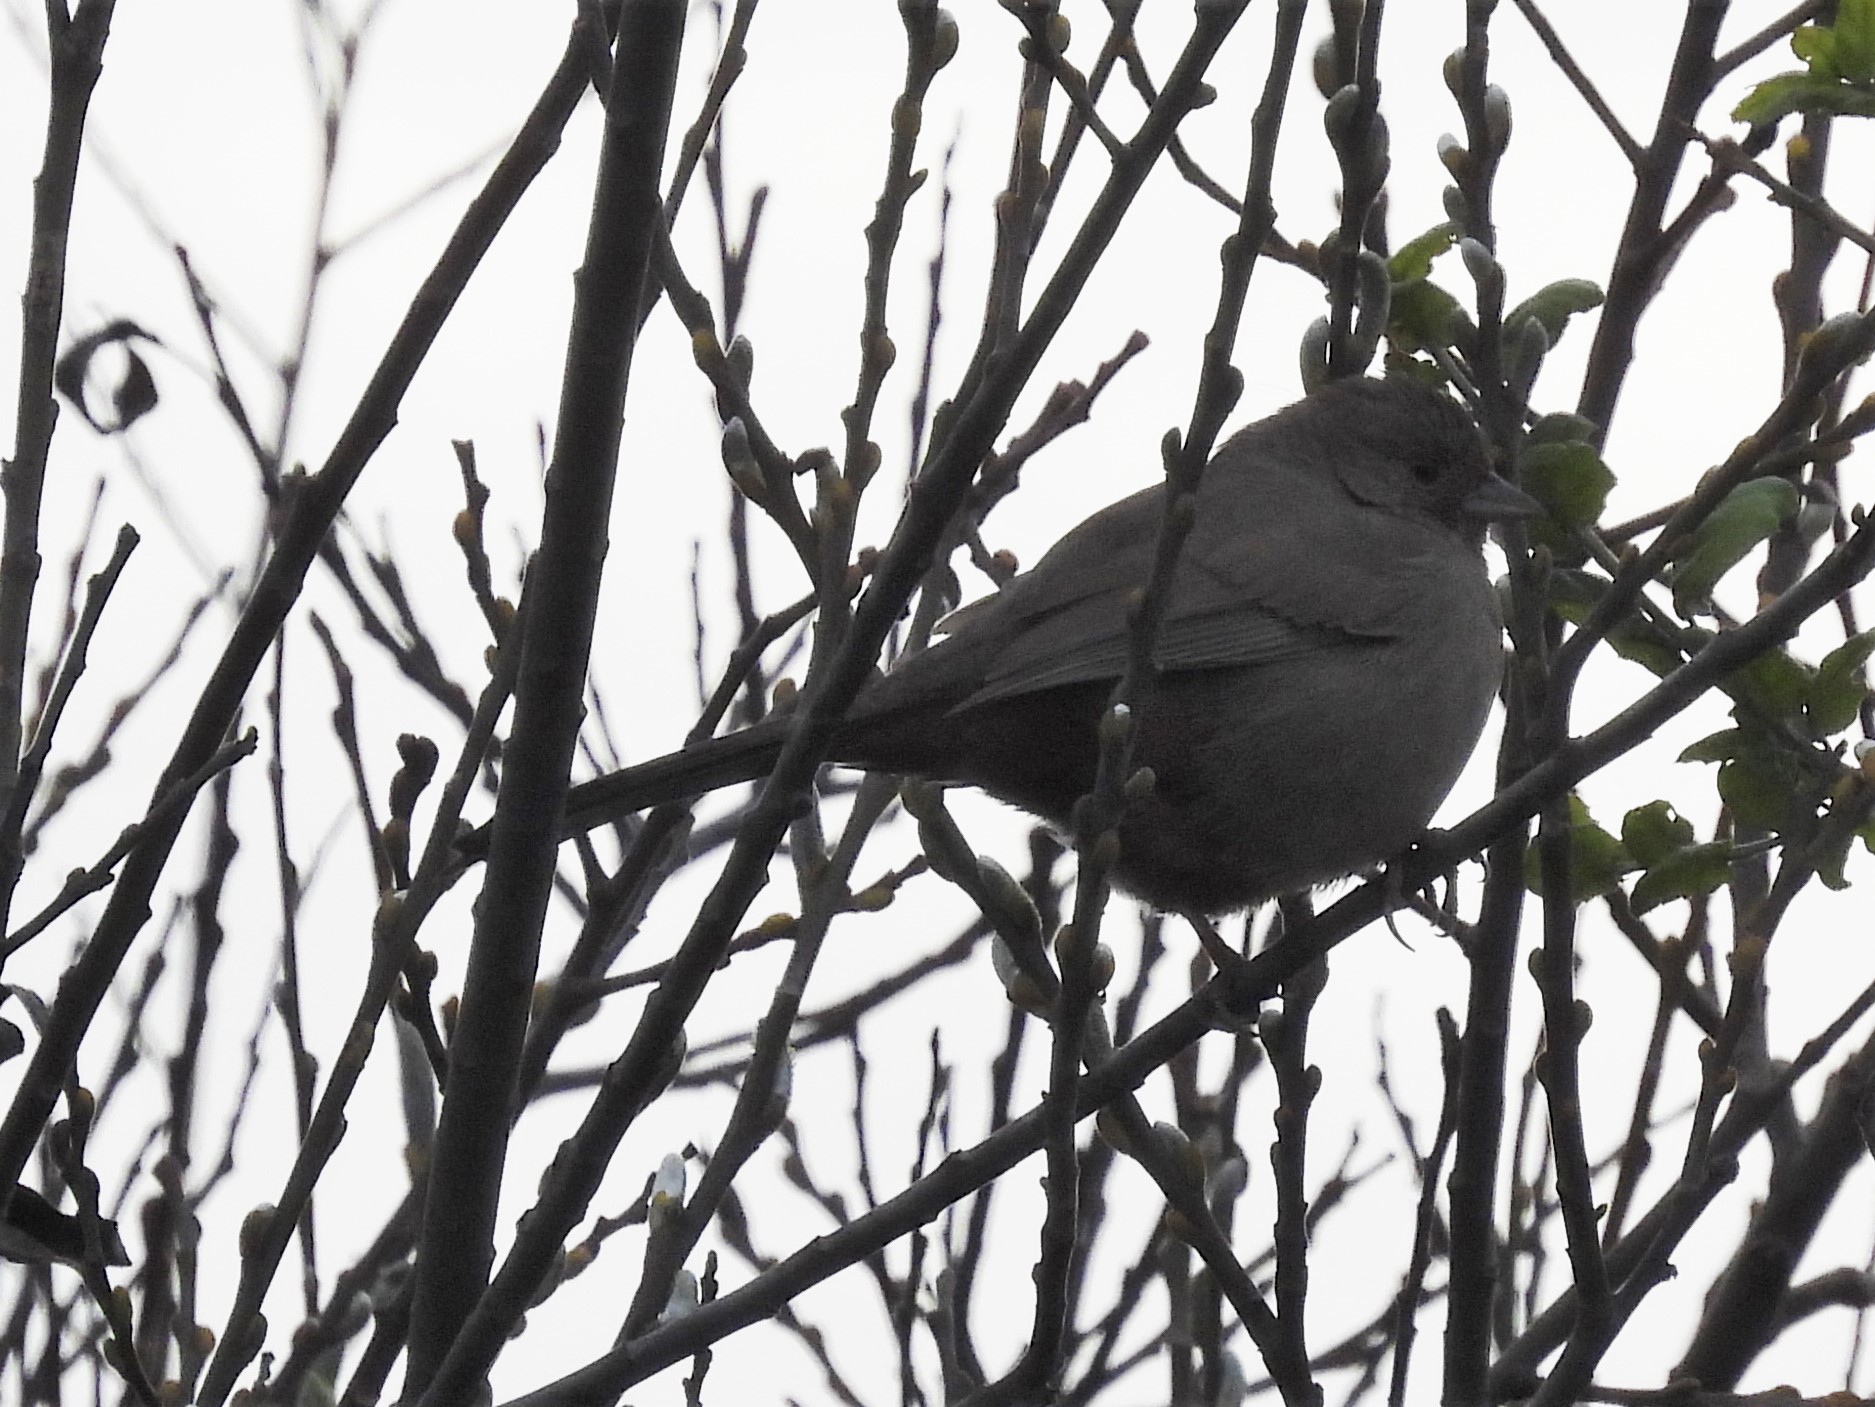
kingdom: Animalia
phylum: Chordata
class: Aves
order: Passeriformes
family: Passerellidae
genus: Melozone
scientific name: Melozone crissalis
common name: California towhee
